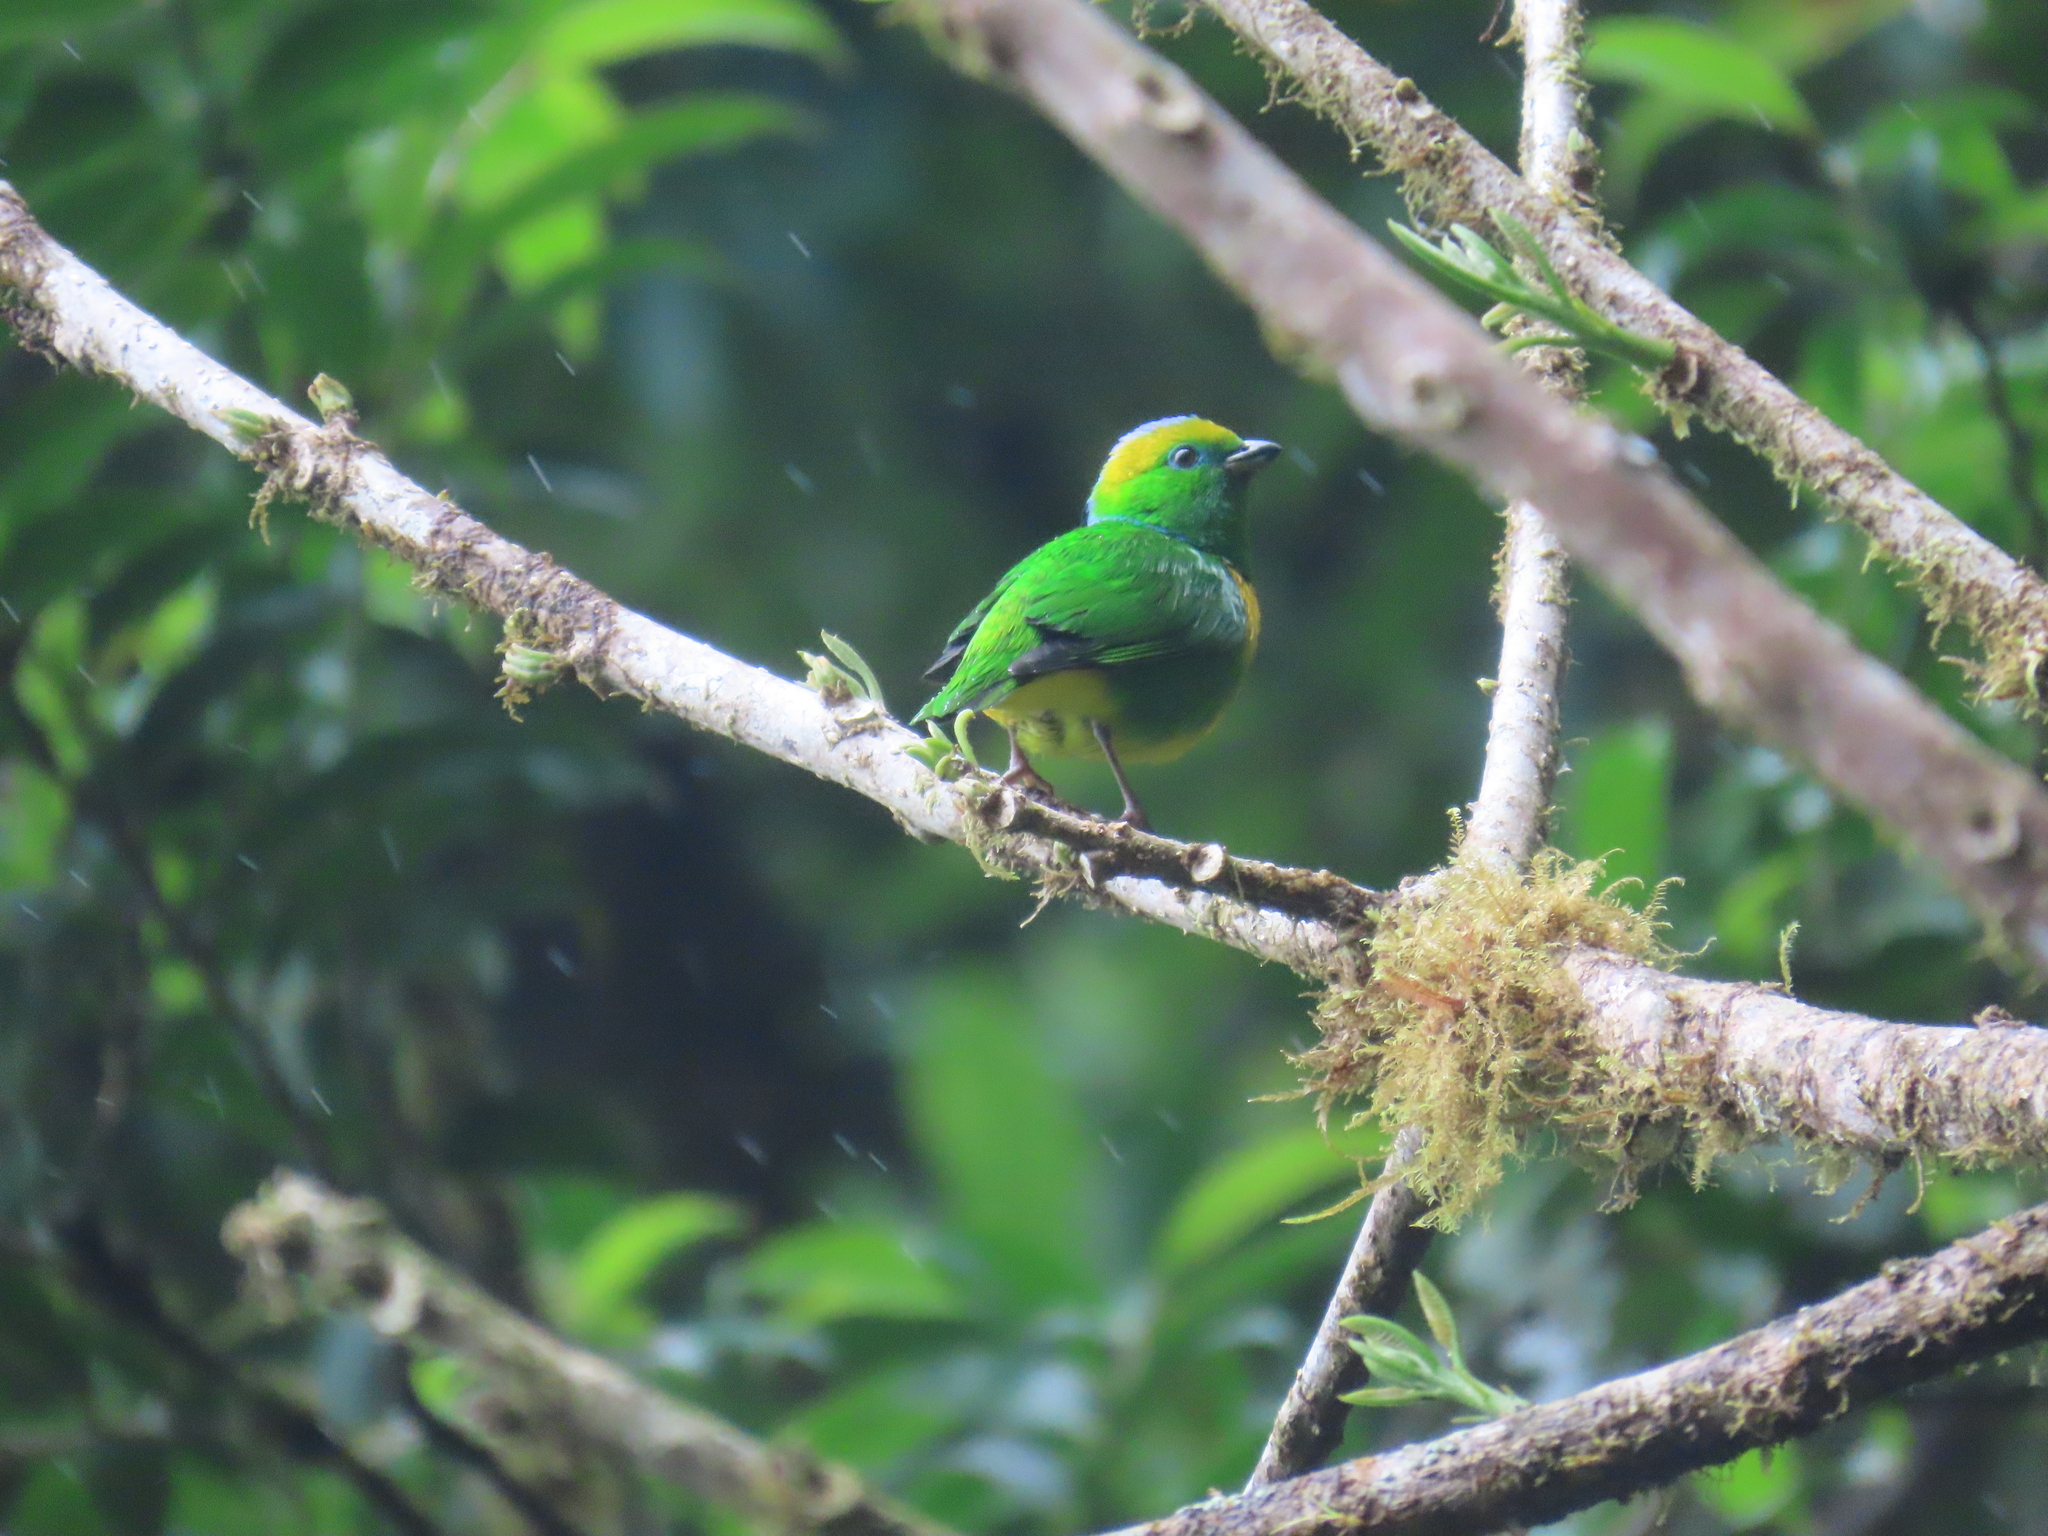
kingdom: Animalia
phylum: Chordata
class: Aves
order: Passeriformes
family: Fringillidae
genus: Chlorophonia
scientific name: Chlorophonia callophrys
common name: Golden-browed chlorophonia
